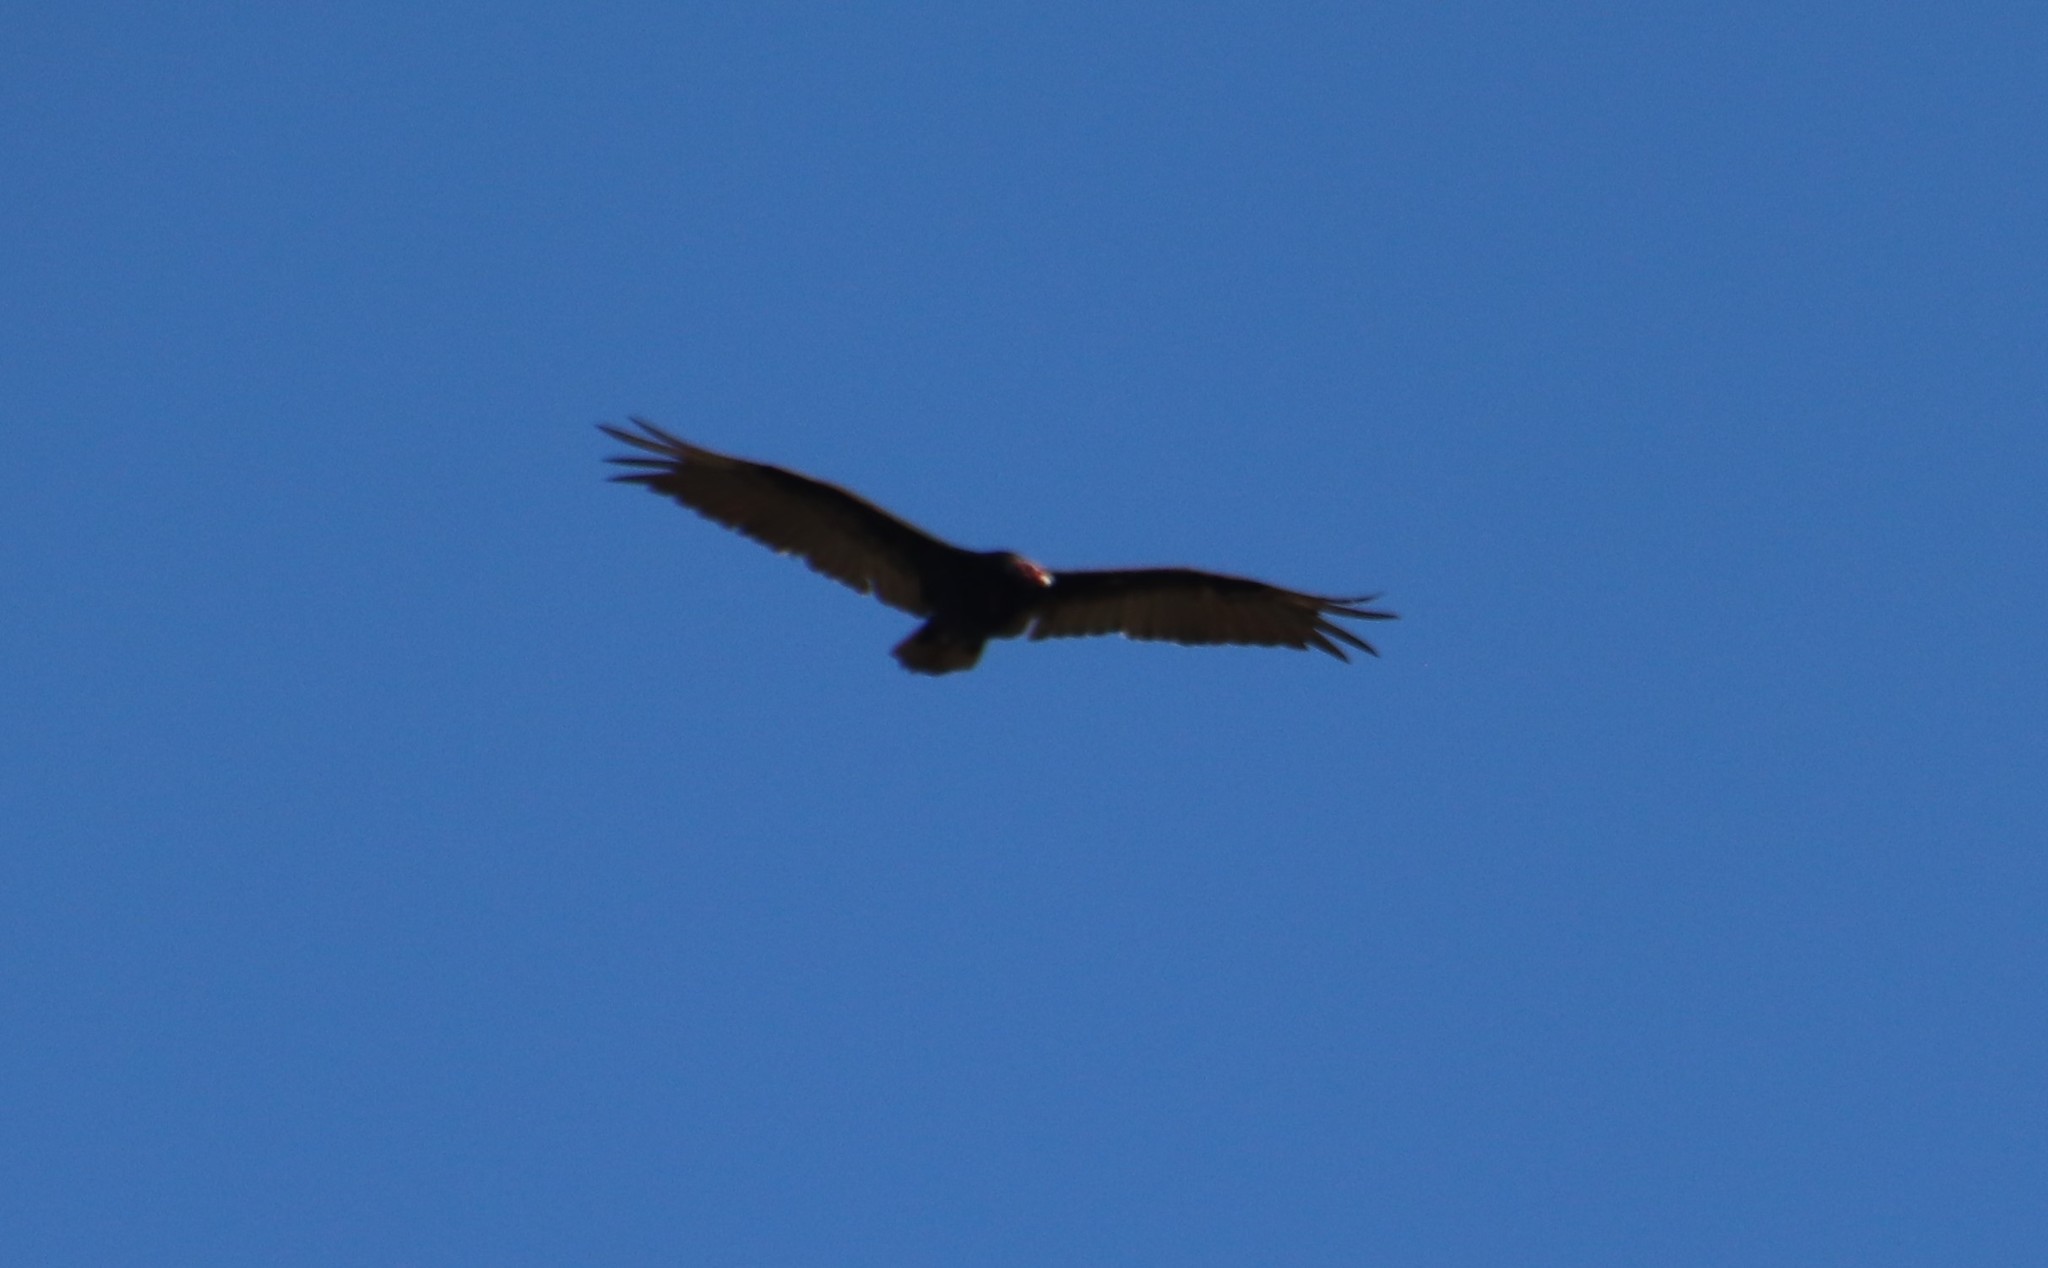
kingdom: Animalia
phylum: Chordata
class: Aves
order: Accipitriformes
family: Cathartidae
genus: Cathartes
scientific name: Cathartes aura
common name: Turkey vulture
